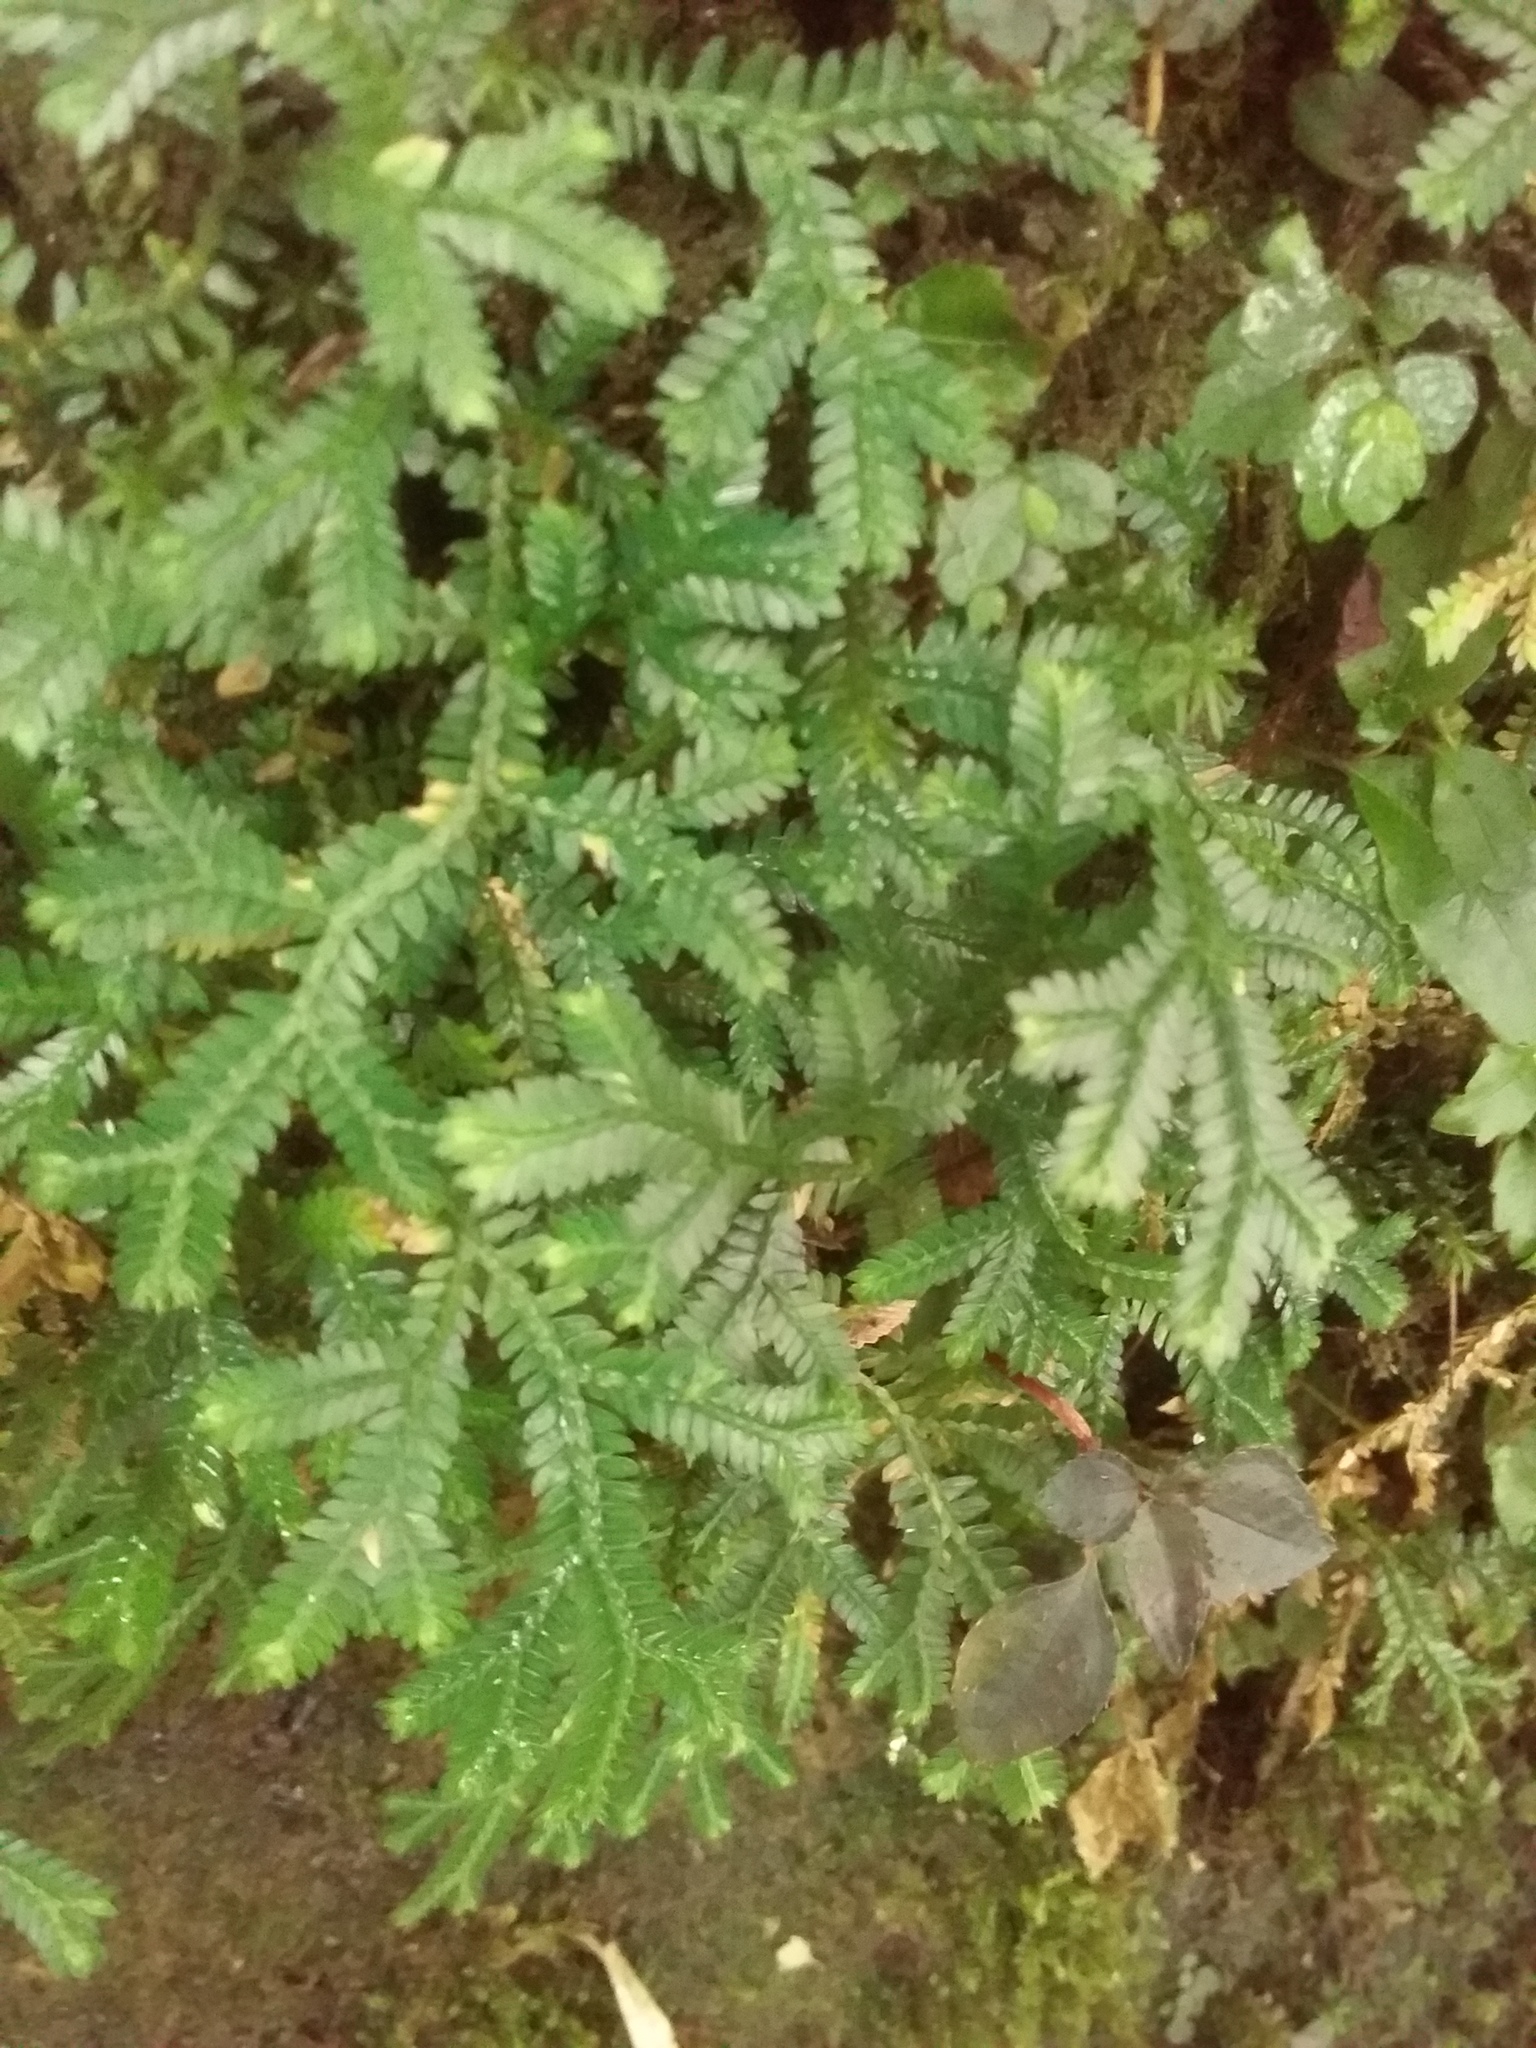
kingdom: Plantae
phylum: Tracheophyta
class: Lycopodiopsida
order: Selaginellales
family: Selaginellaceae
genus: Selaginella
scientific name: Selaginella doederleinii
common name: Greater selaginella
